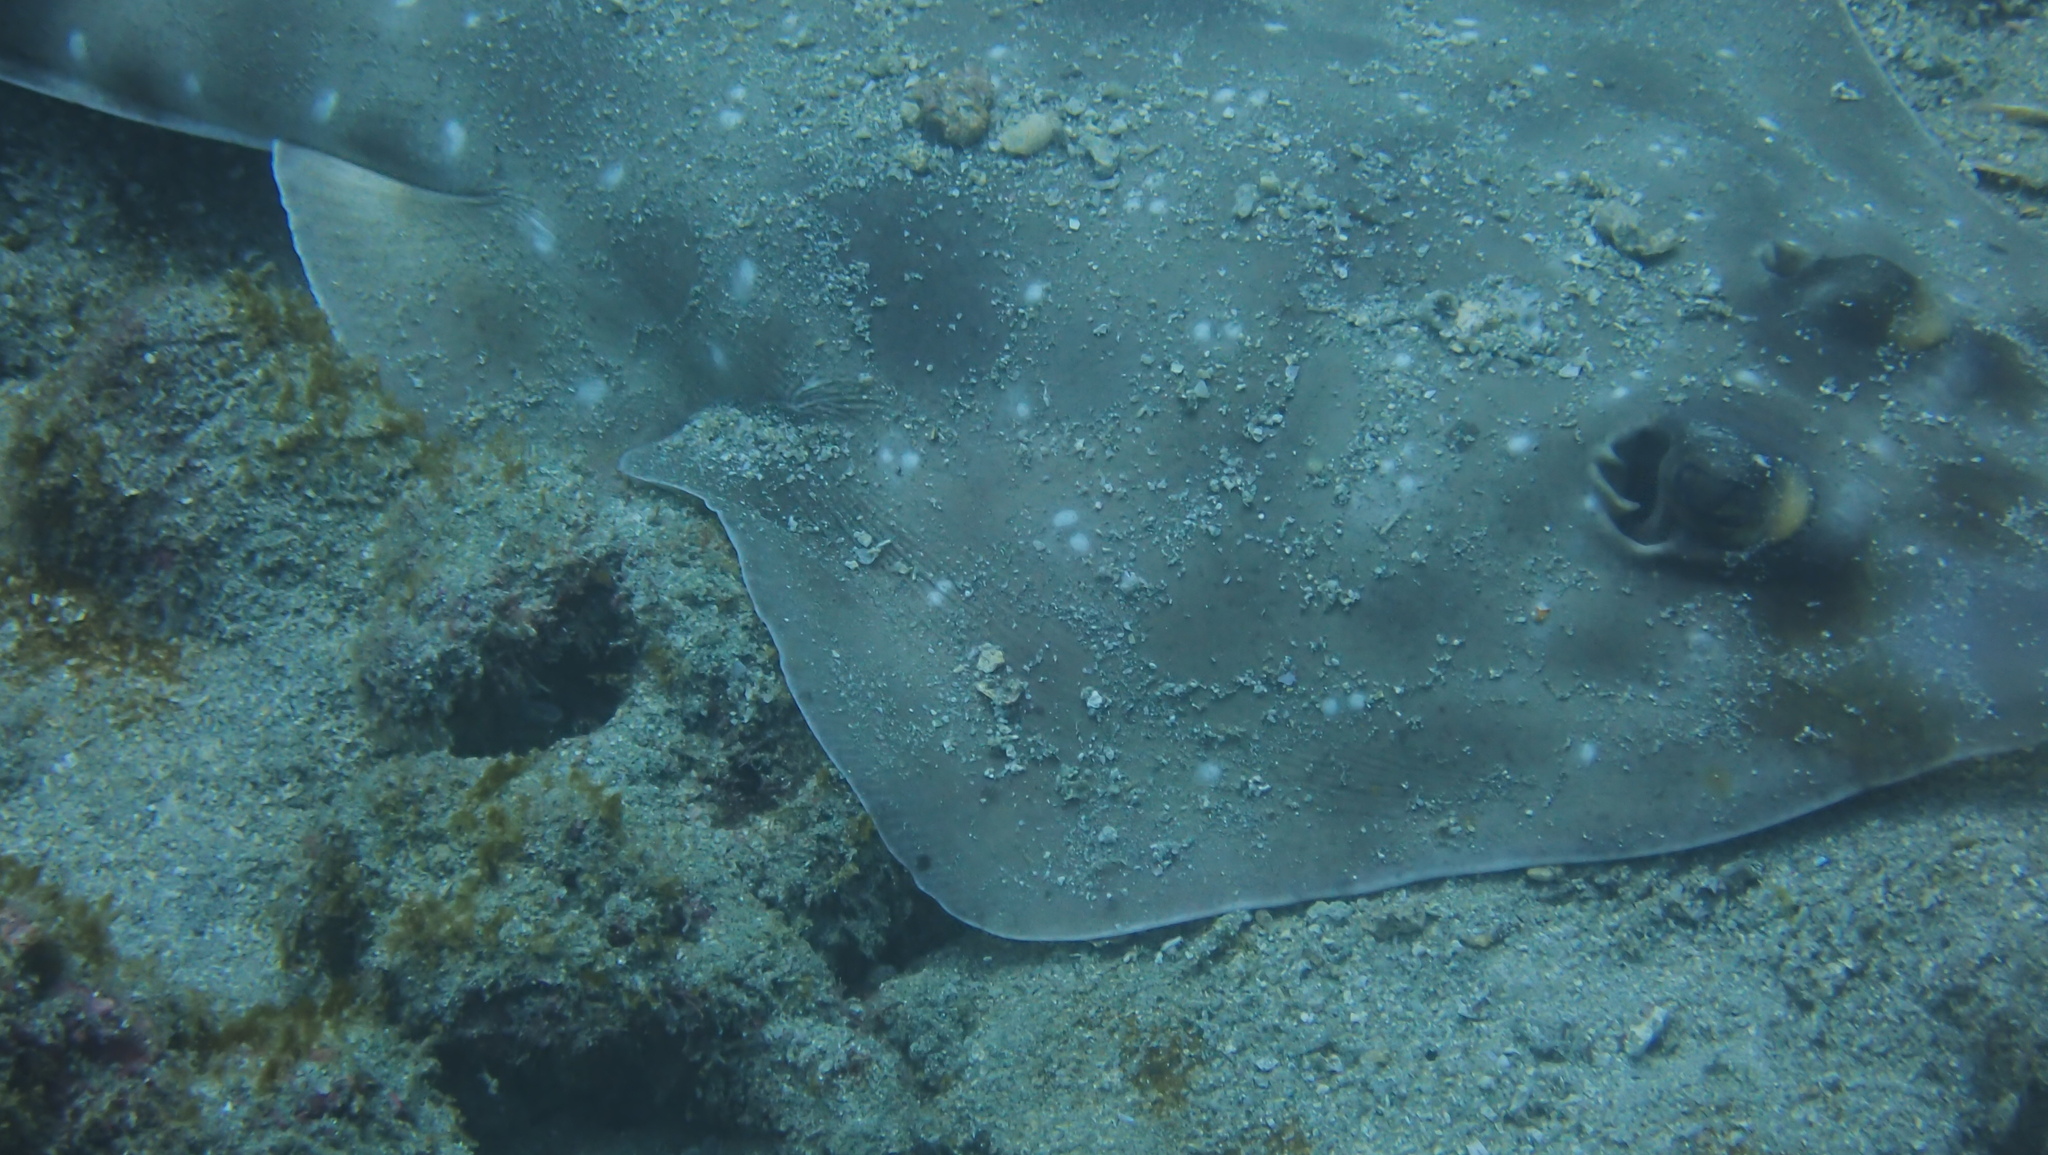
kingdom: Animalia
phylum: Chordata
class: Elasmobranchii
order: Rhinopristiformes
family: Rhinobatidae
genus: Pseudobatos
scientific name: Pseudobatos prahli
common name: Gorgona guitarfish
